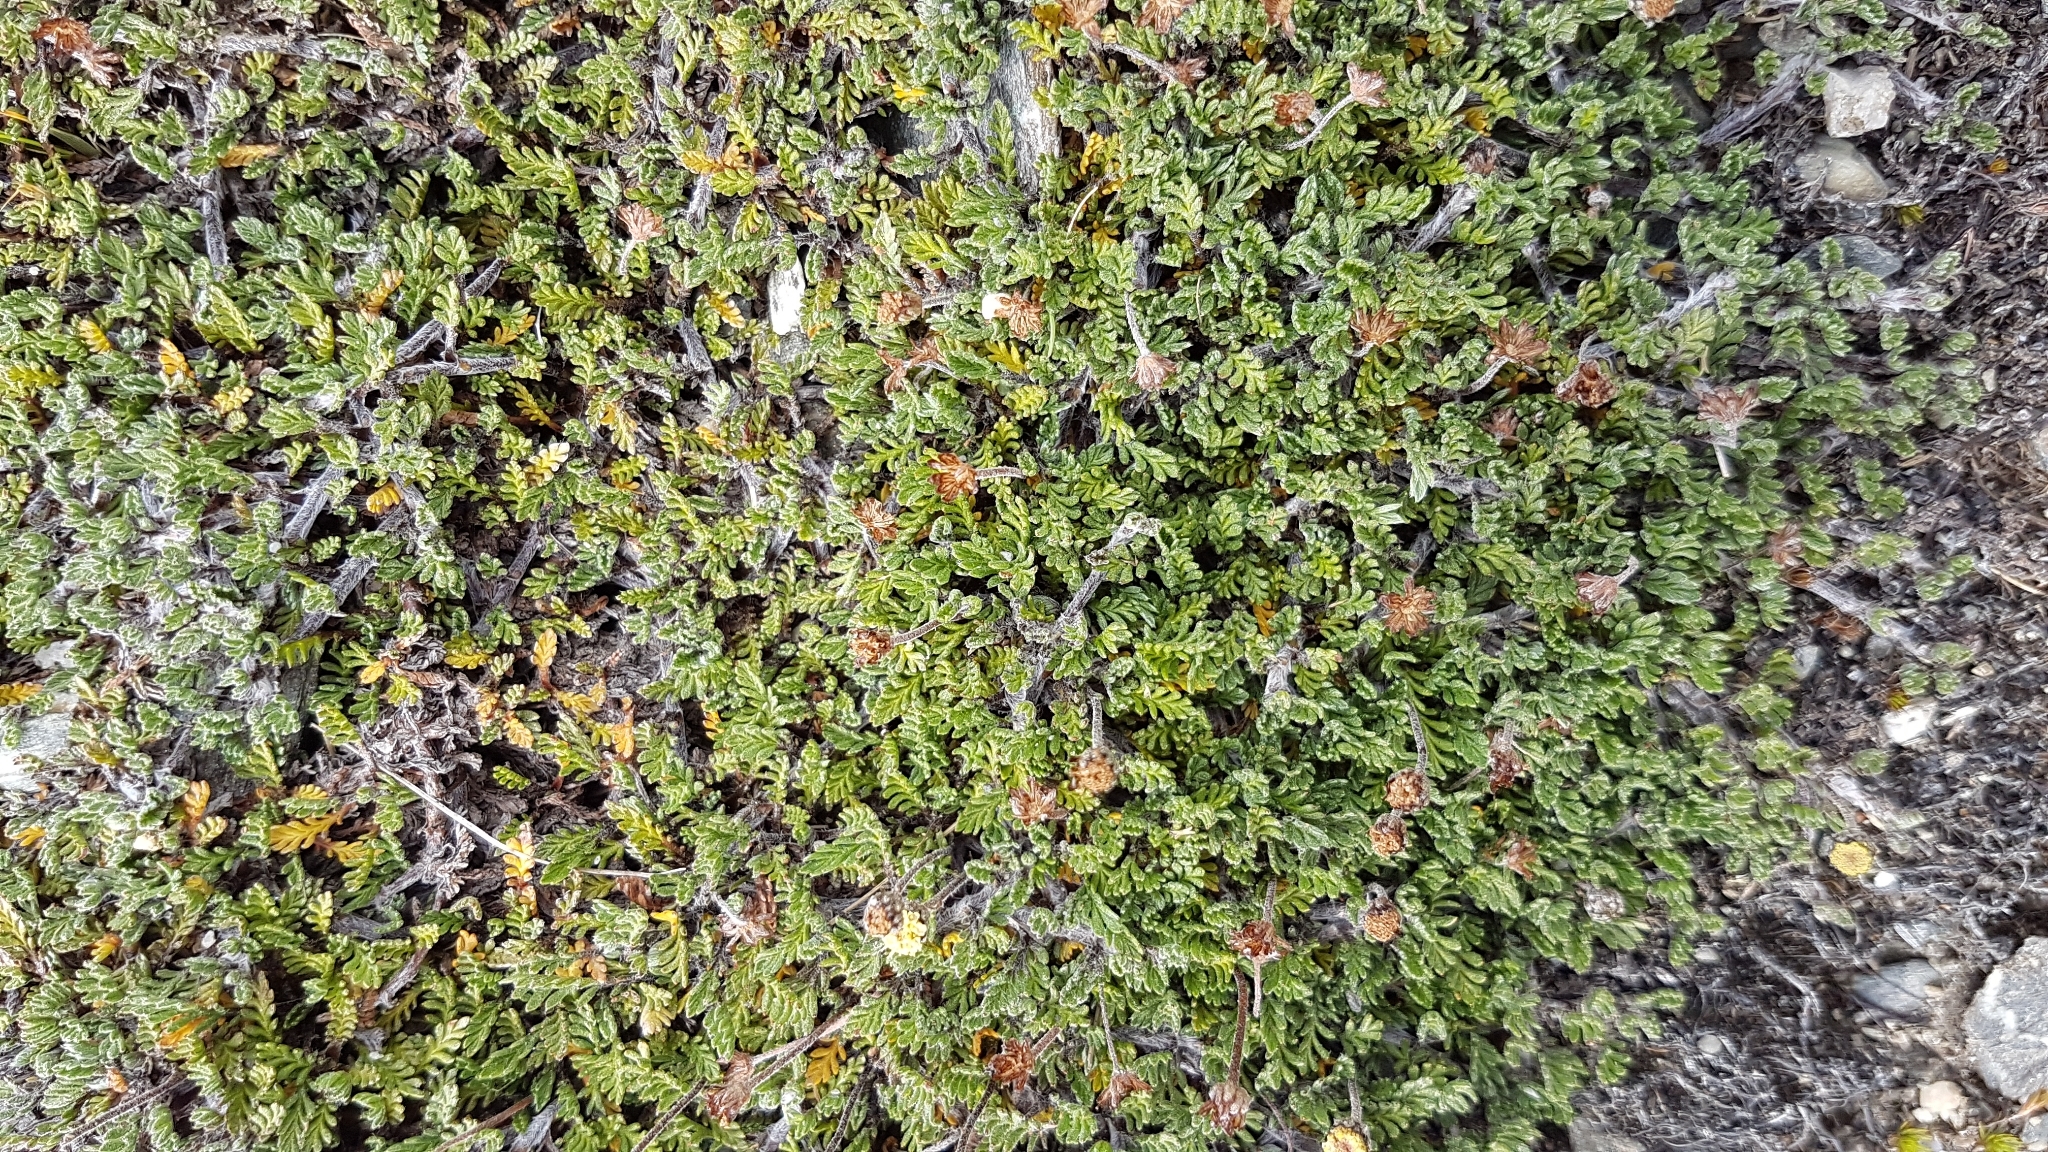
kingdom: Plantae
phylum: Tracheophyta
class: Magnoliopsida
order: Asterales
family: Asteraceae
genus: Leptinella
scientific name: Leptinella pectinata
